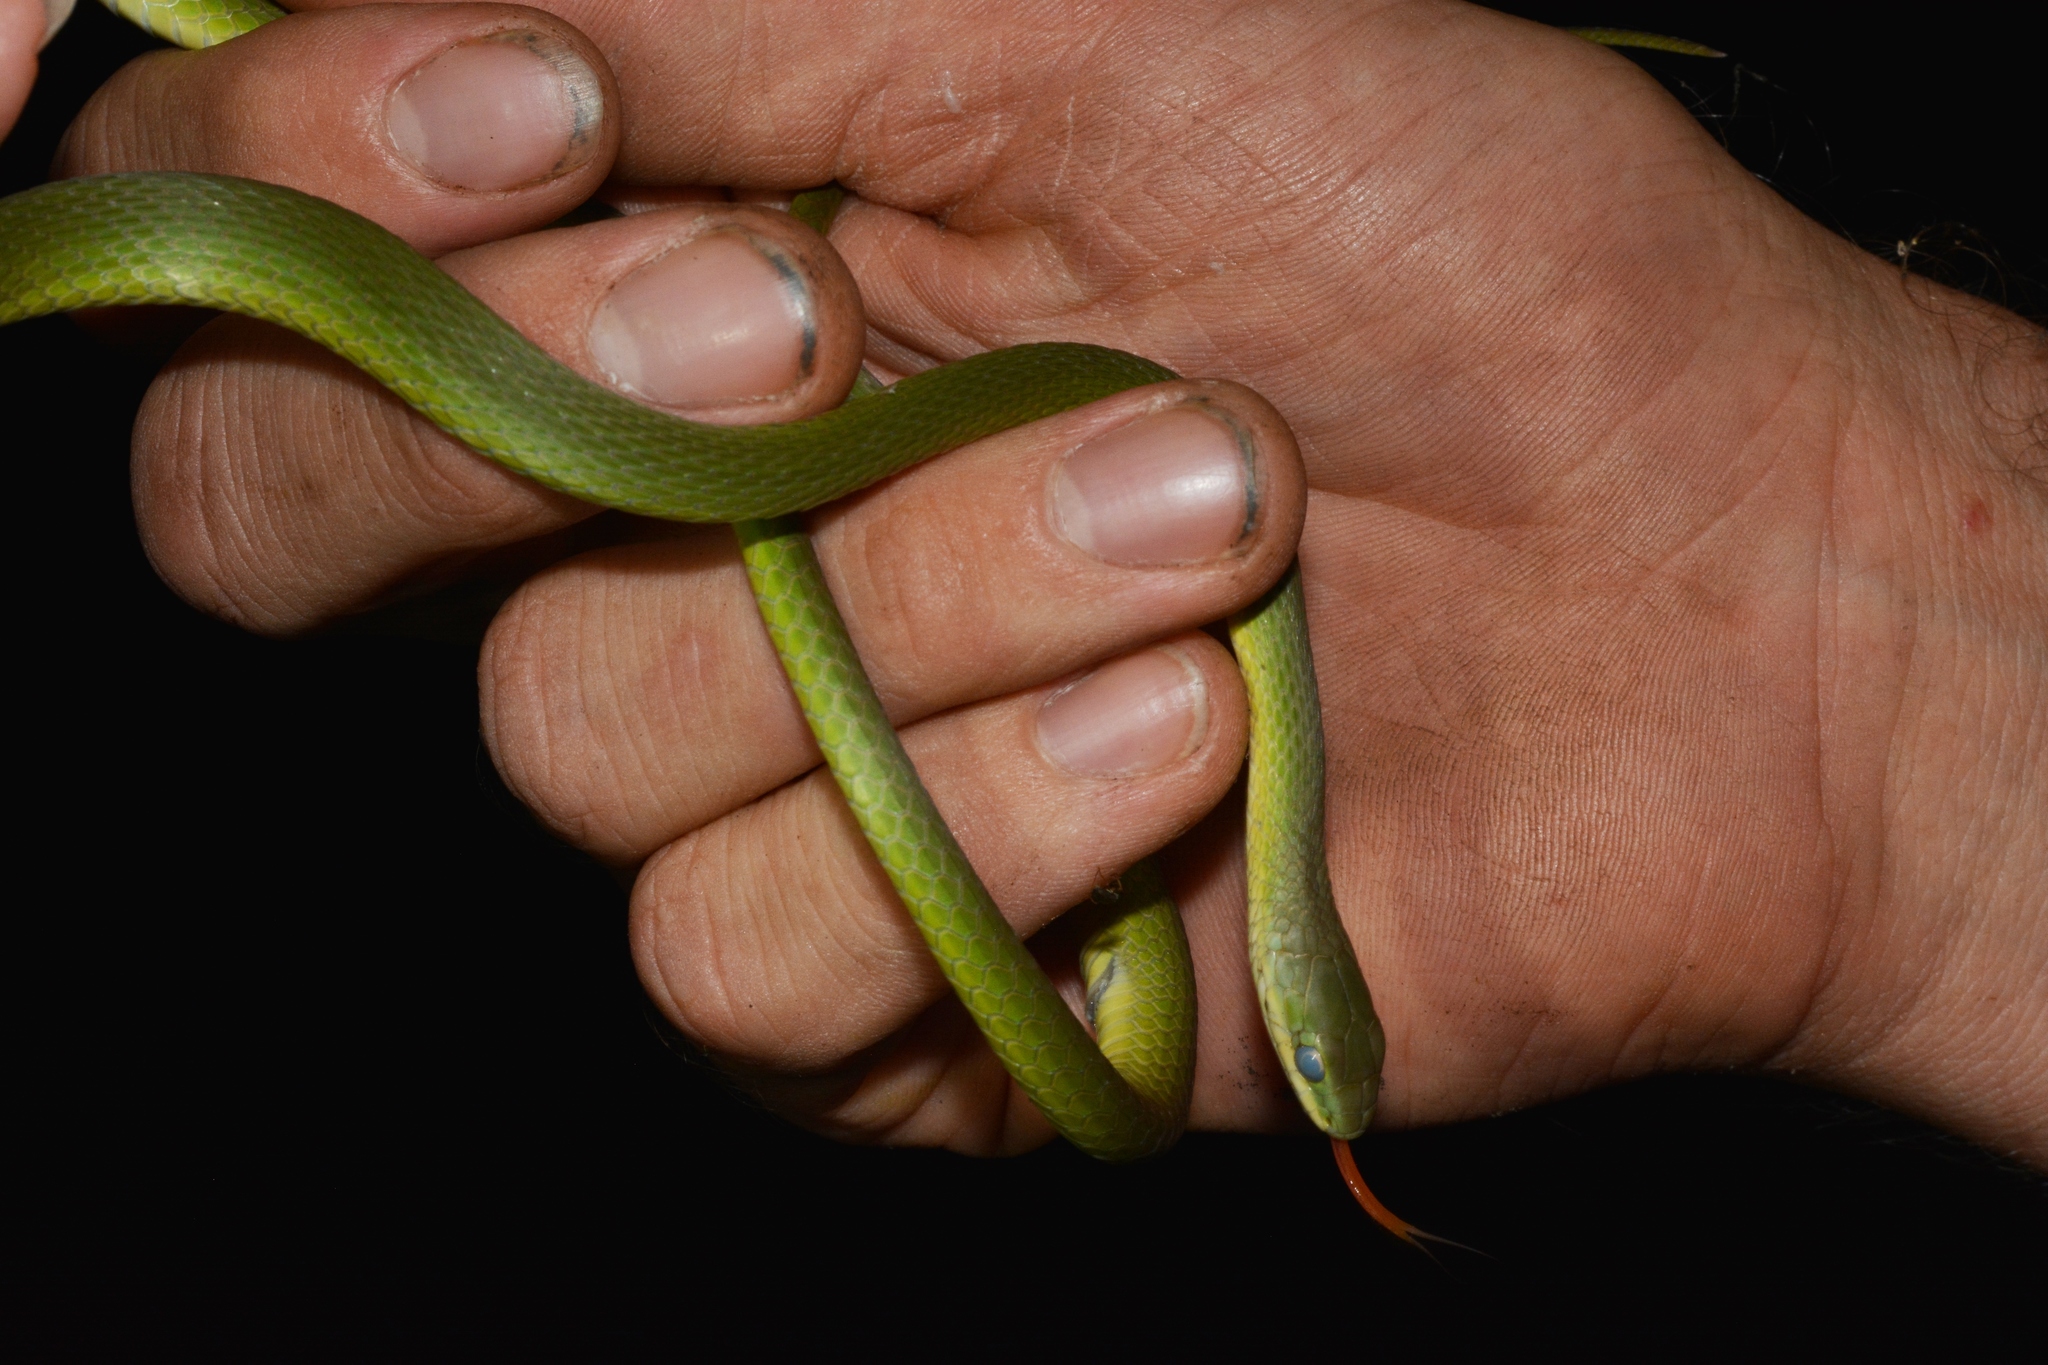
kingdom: Animalia
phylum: Chordata
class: Squamata
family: Colubridae
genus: Opheodrys
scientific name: Opheodrys aestivus
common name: Rough greensnake
